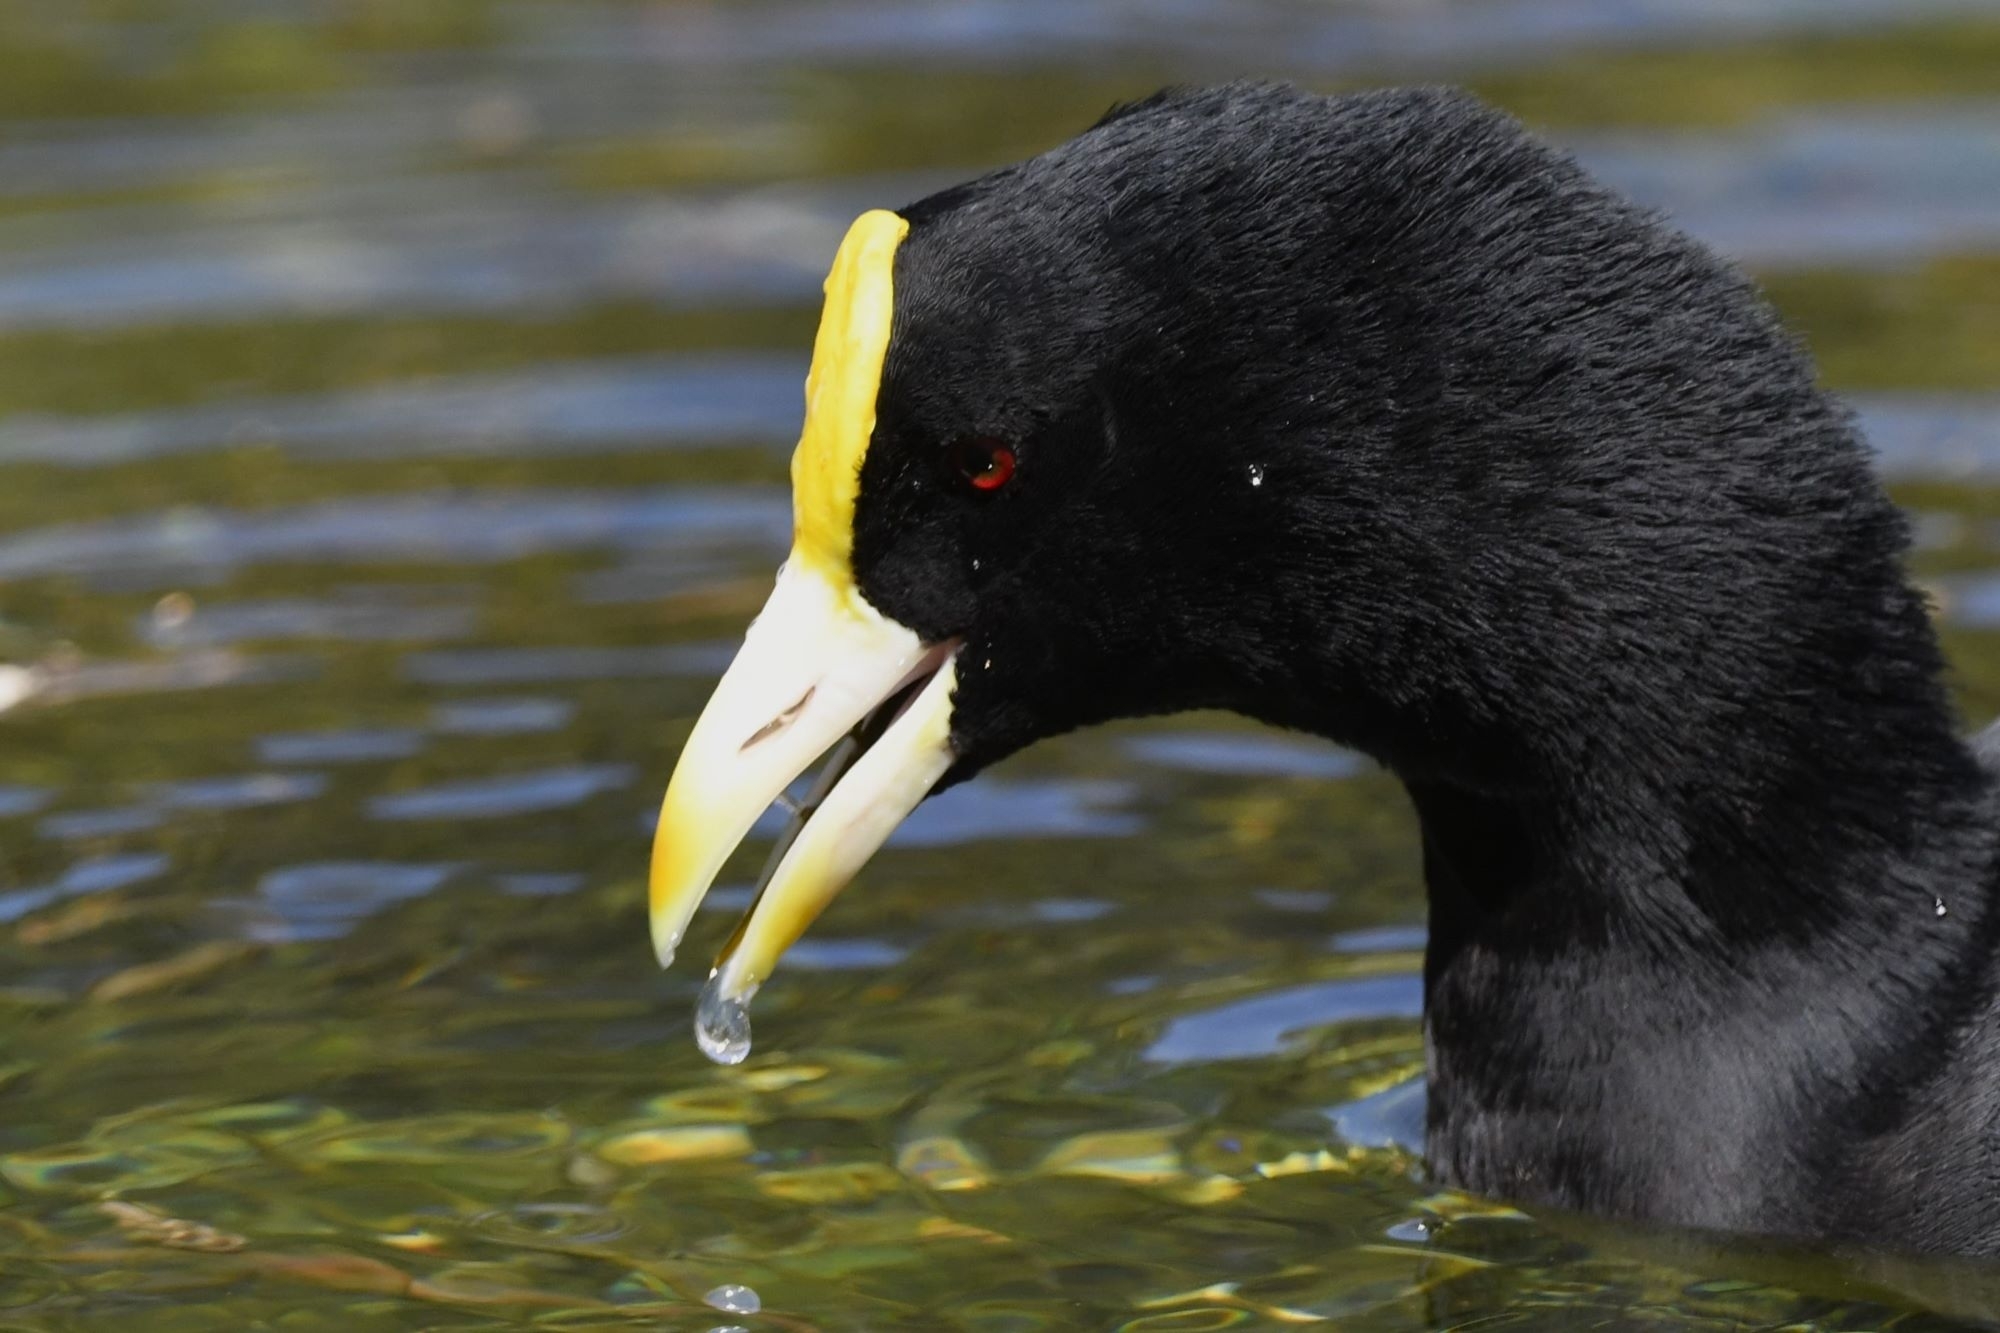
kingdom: Animalia
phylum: Chordata
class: Aves
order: Gruiformes
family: Rallidae
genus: Fulica
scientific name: Fulica leucoptera
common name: White-winged coot
